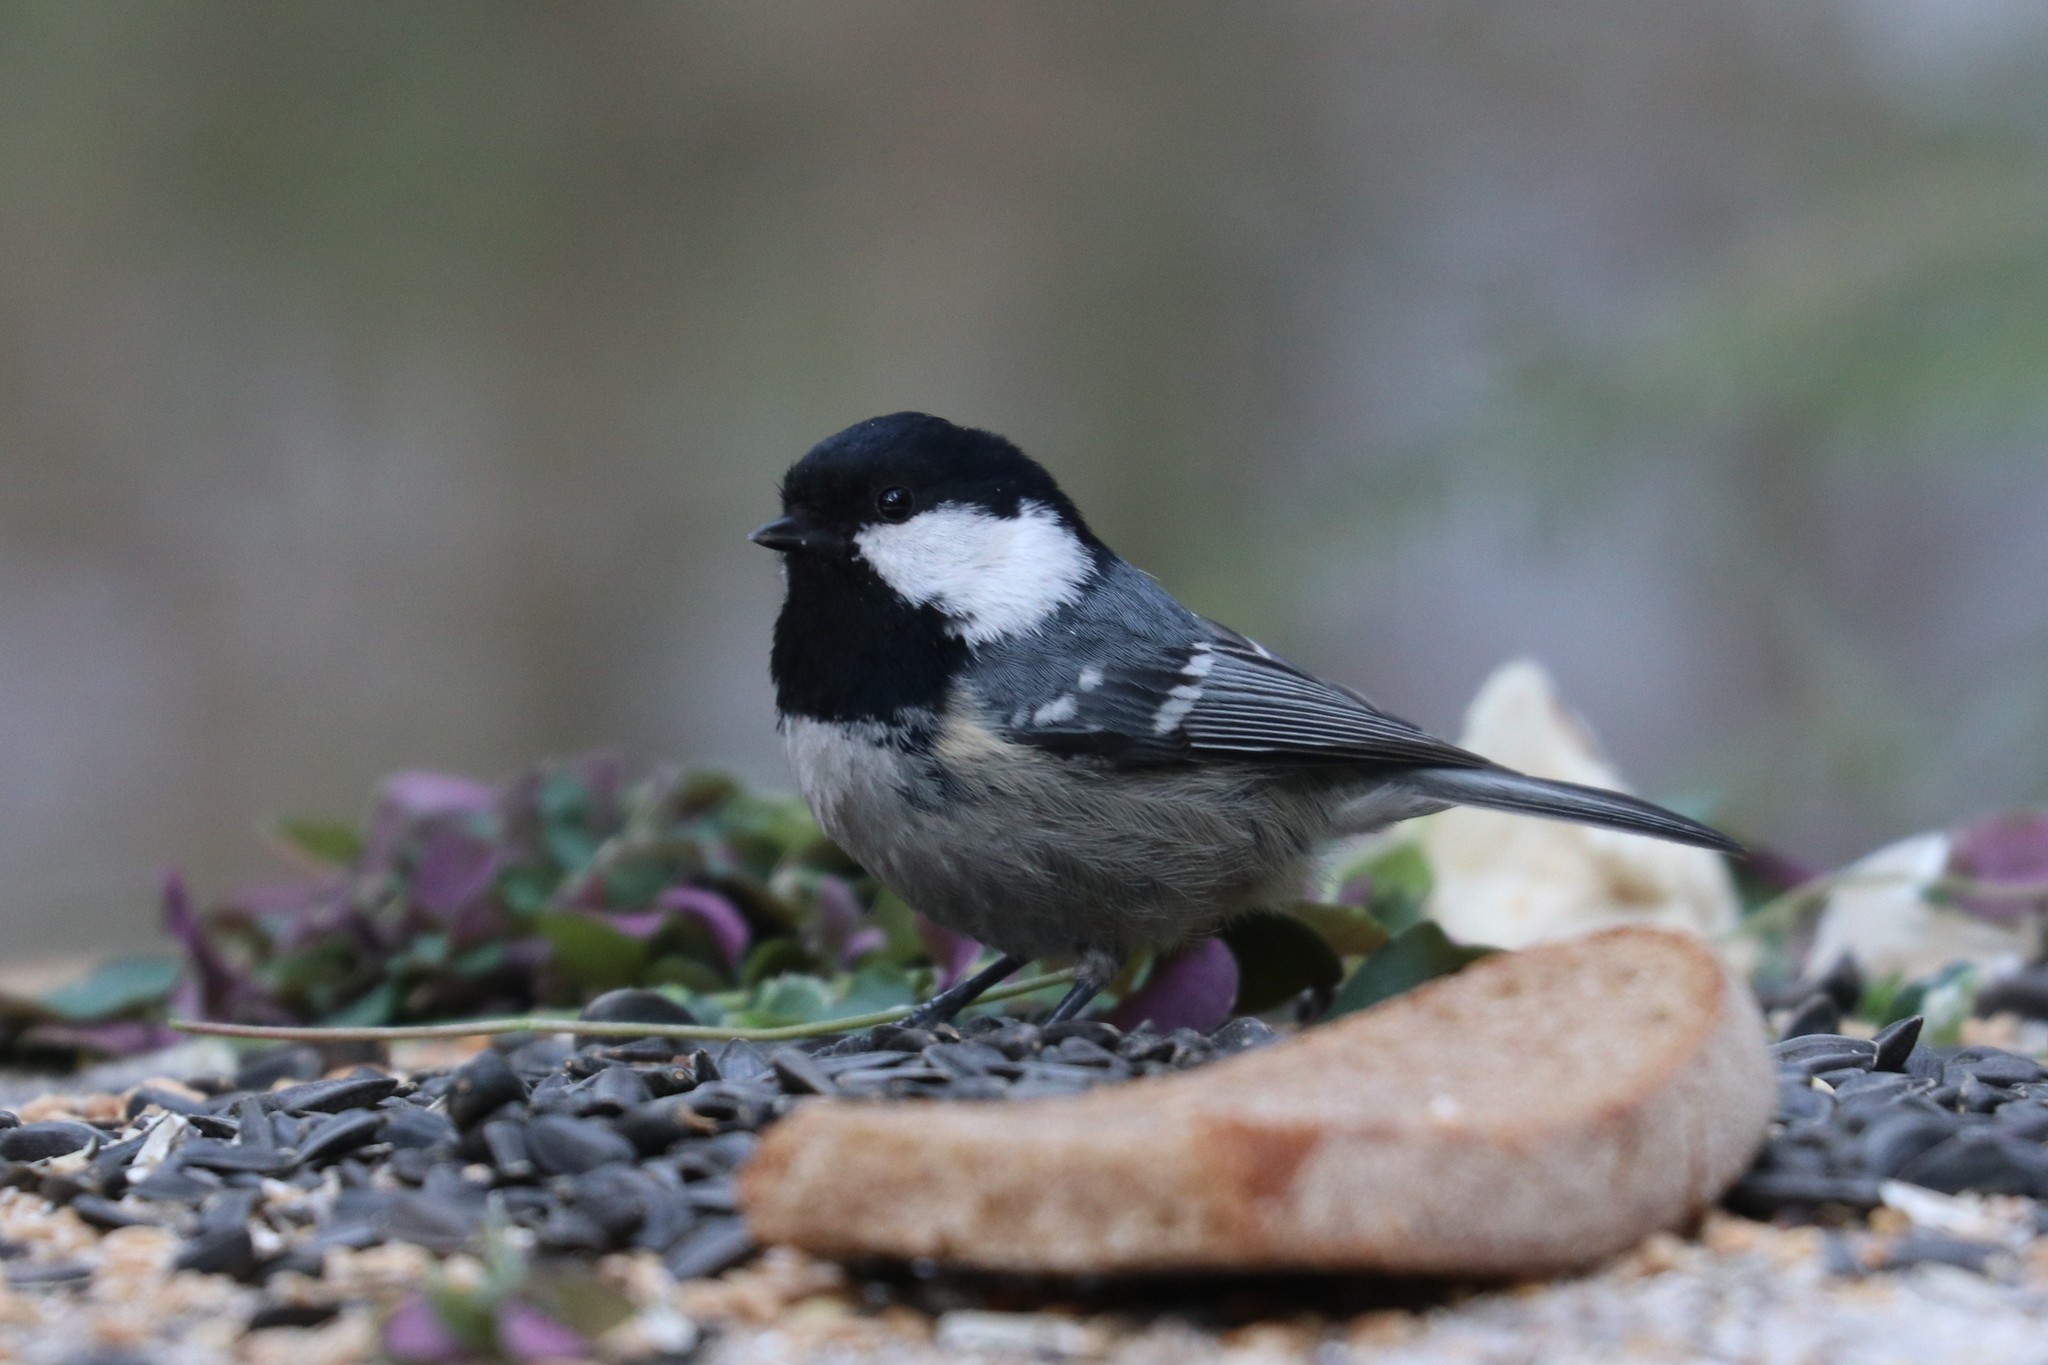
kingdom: Animalia
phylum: Chordata
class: Aves
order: Passeriformes
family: Paridae
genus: Periparus
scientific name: Periparus ater
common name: Coal tit
